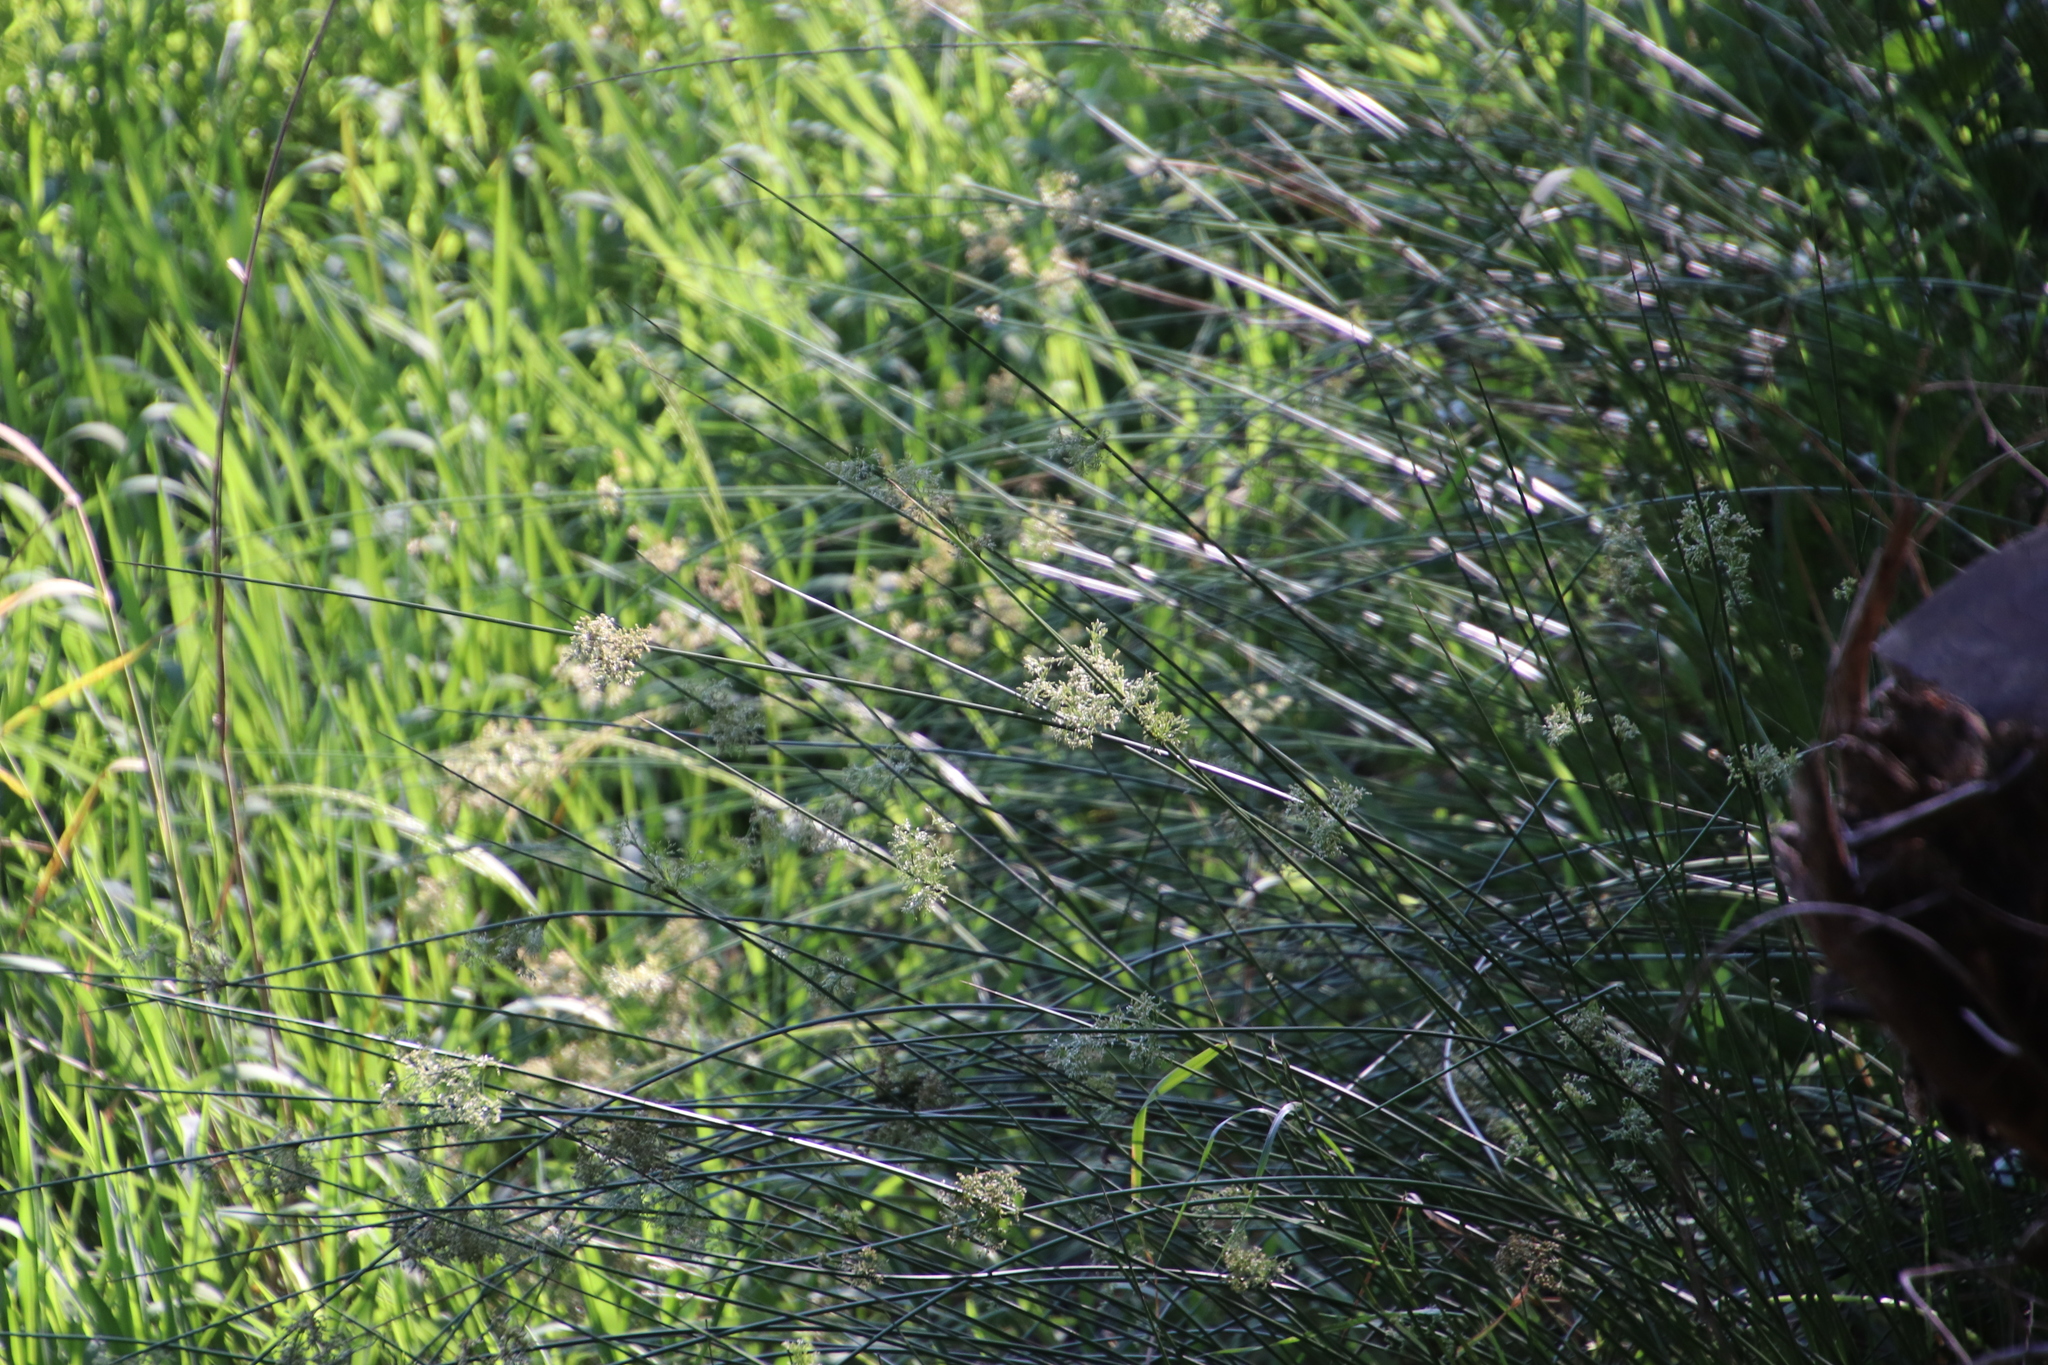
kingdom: Plantae
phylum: Tracheophyta
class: Liliopsida
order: Poales
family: Juncaceae
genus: Juncus
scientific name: Juncus effusus
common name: Soft rush
